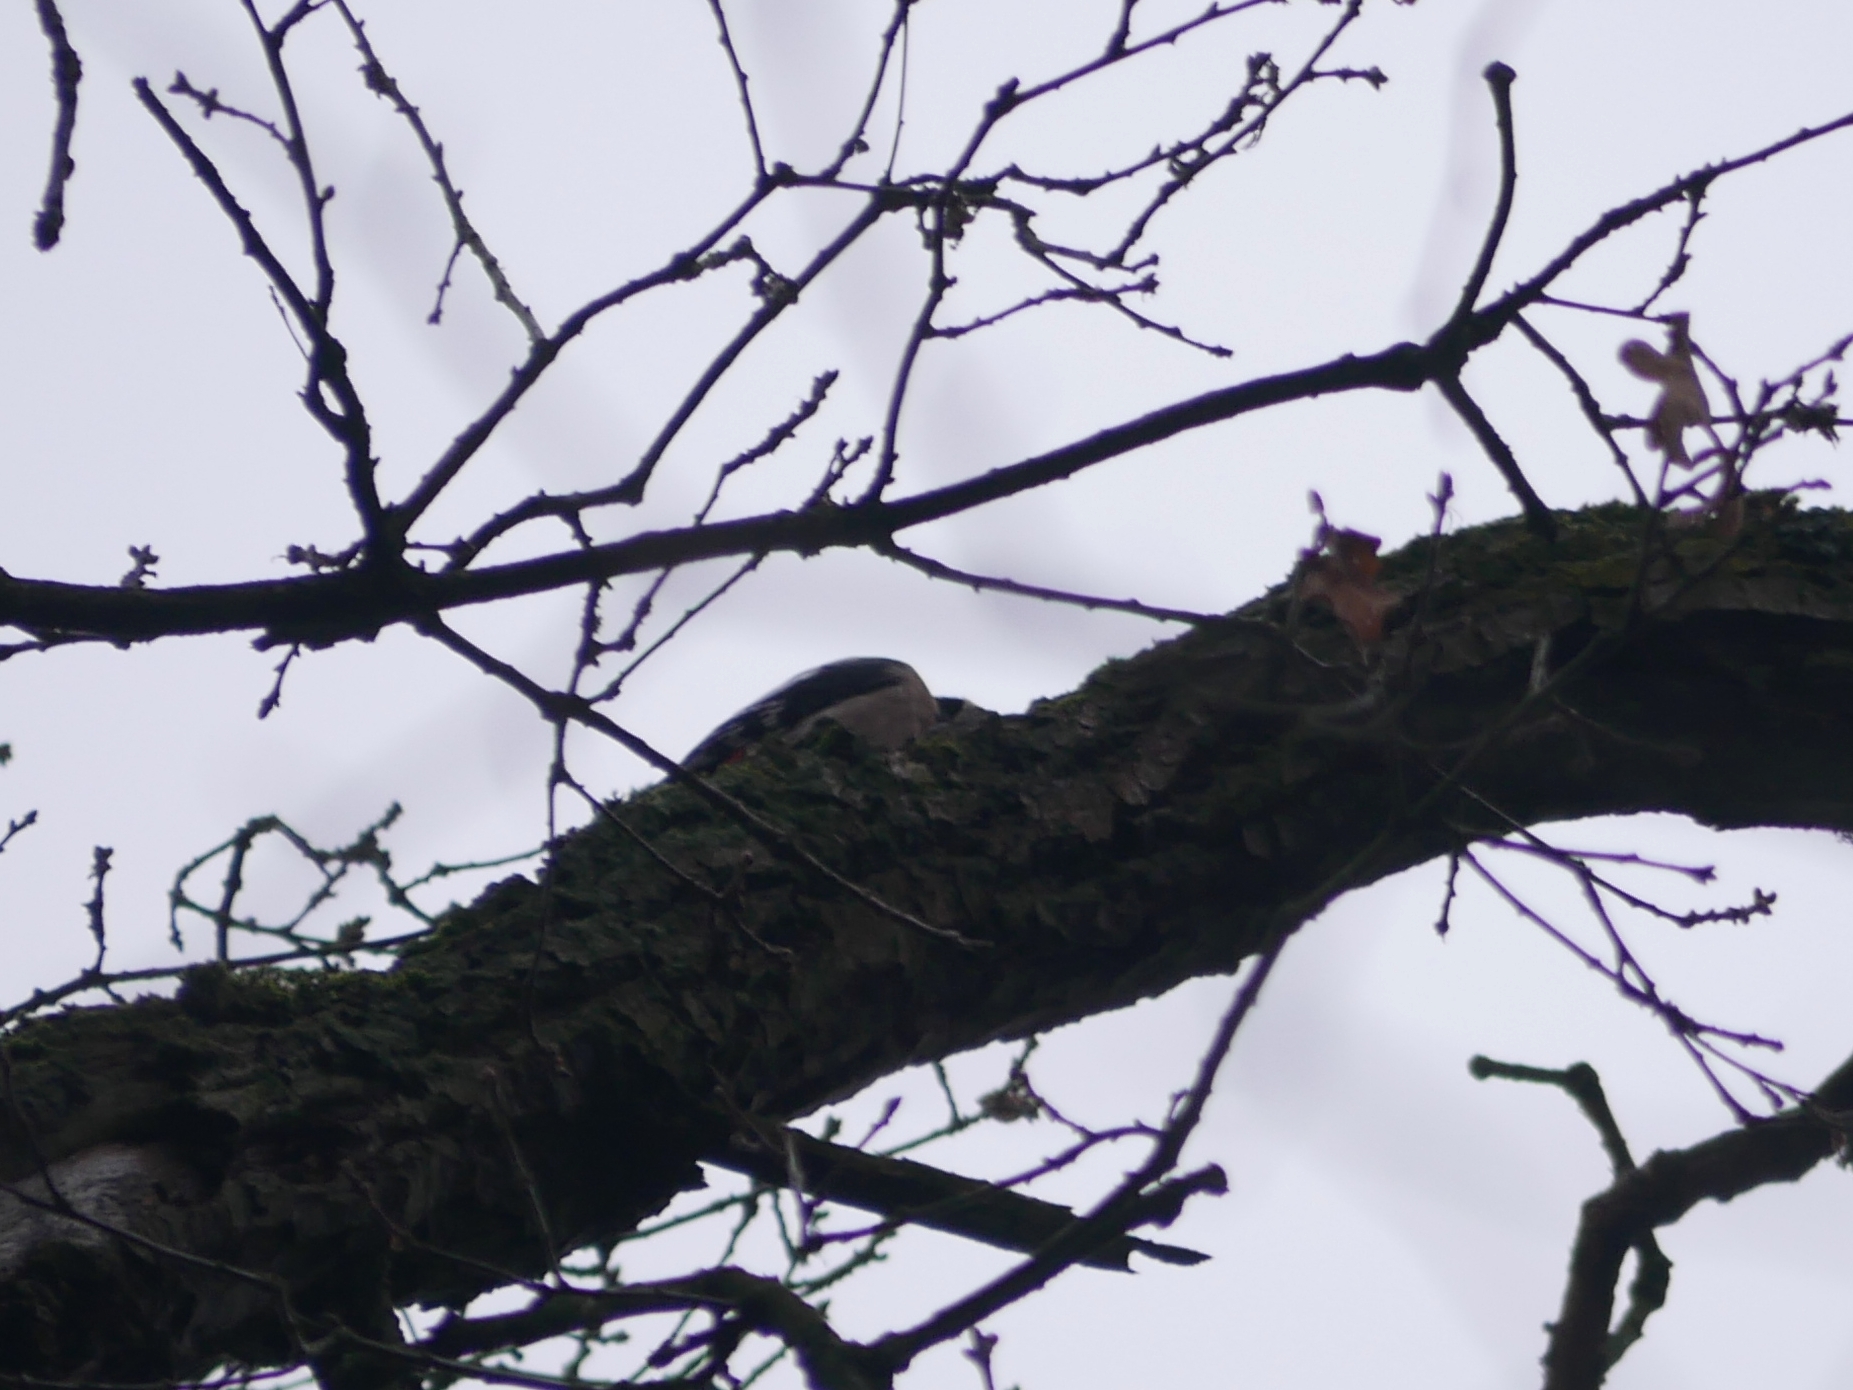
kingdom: Animalia
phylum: Chordata
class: Aves
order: Piciformes
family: Picidae
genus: Dendrocopos
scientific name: Dendrocopos major
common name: Great spotted woodpecker
